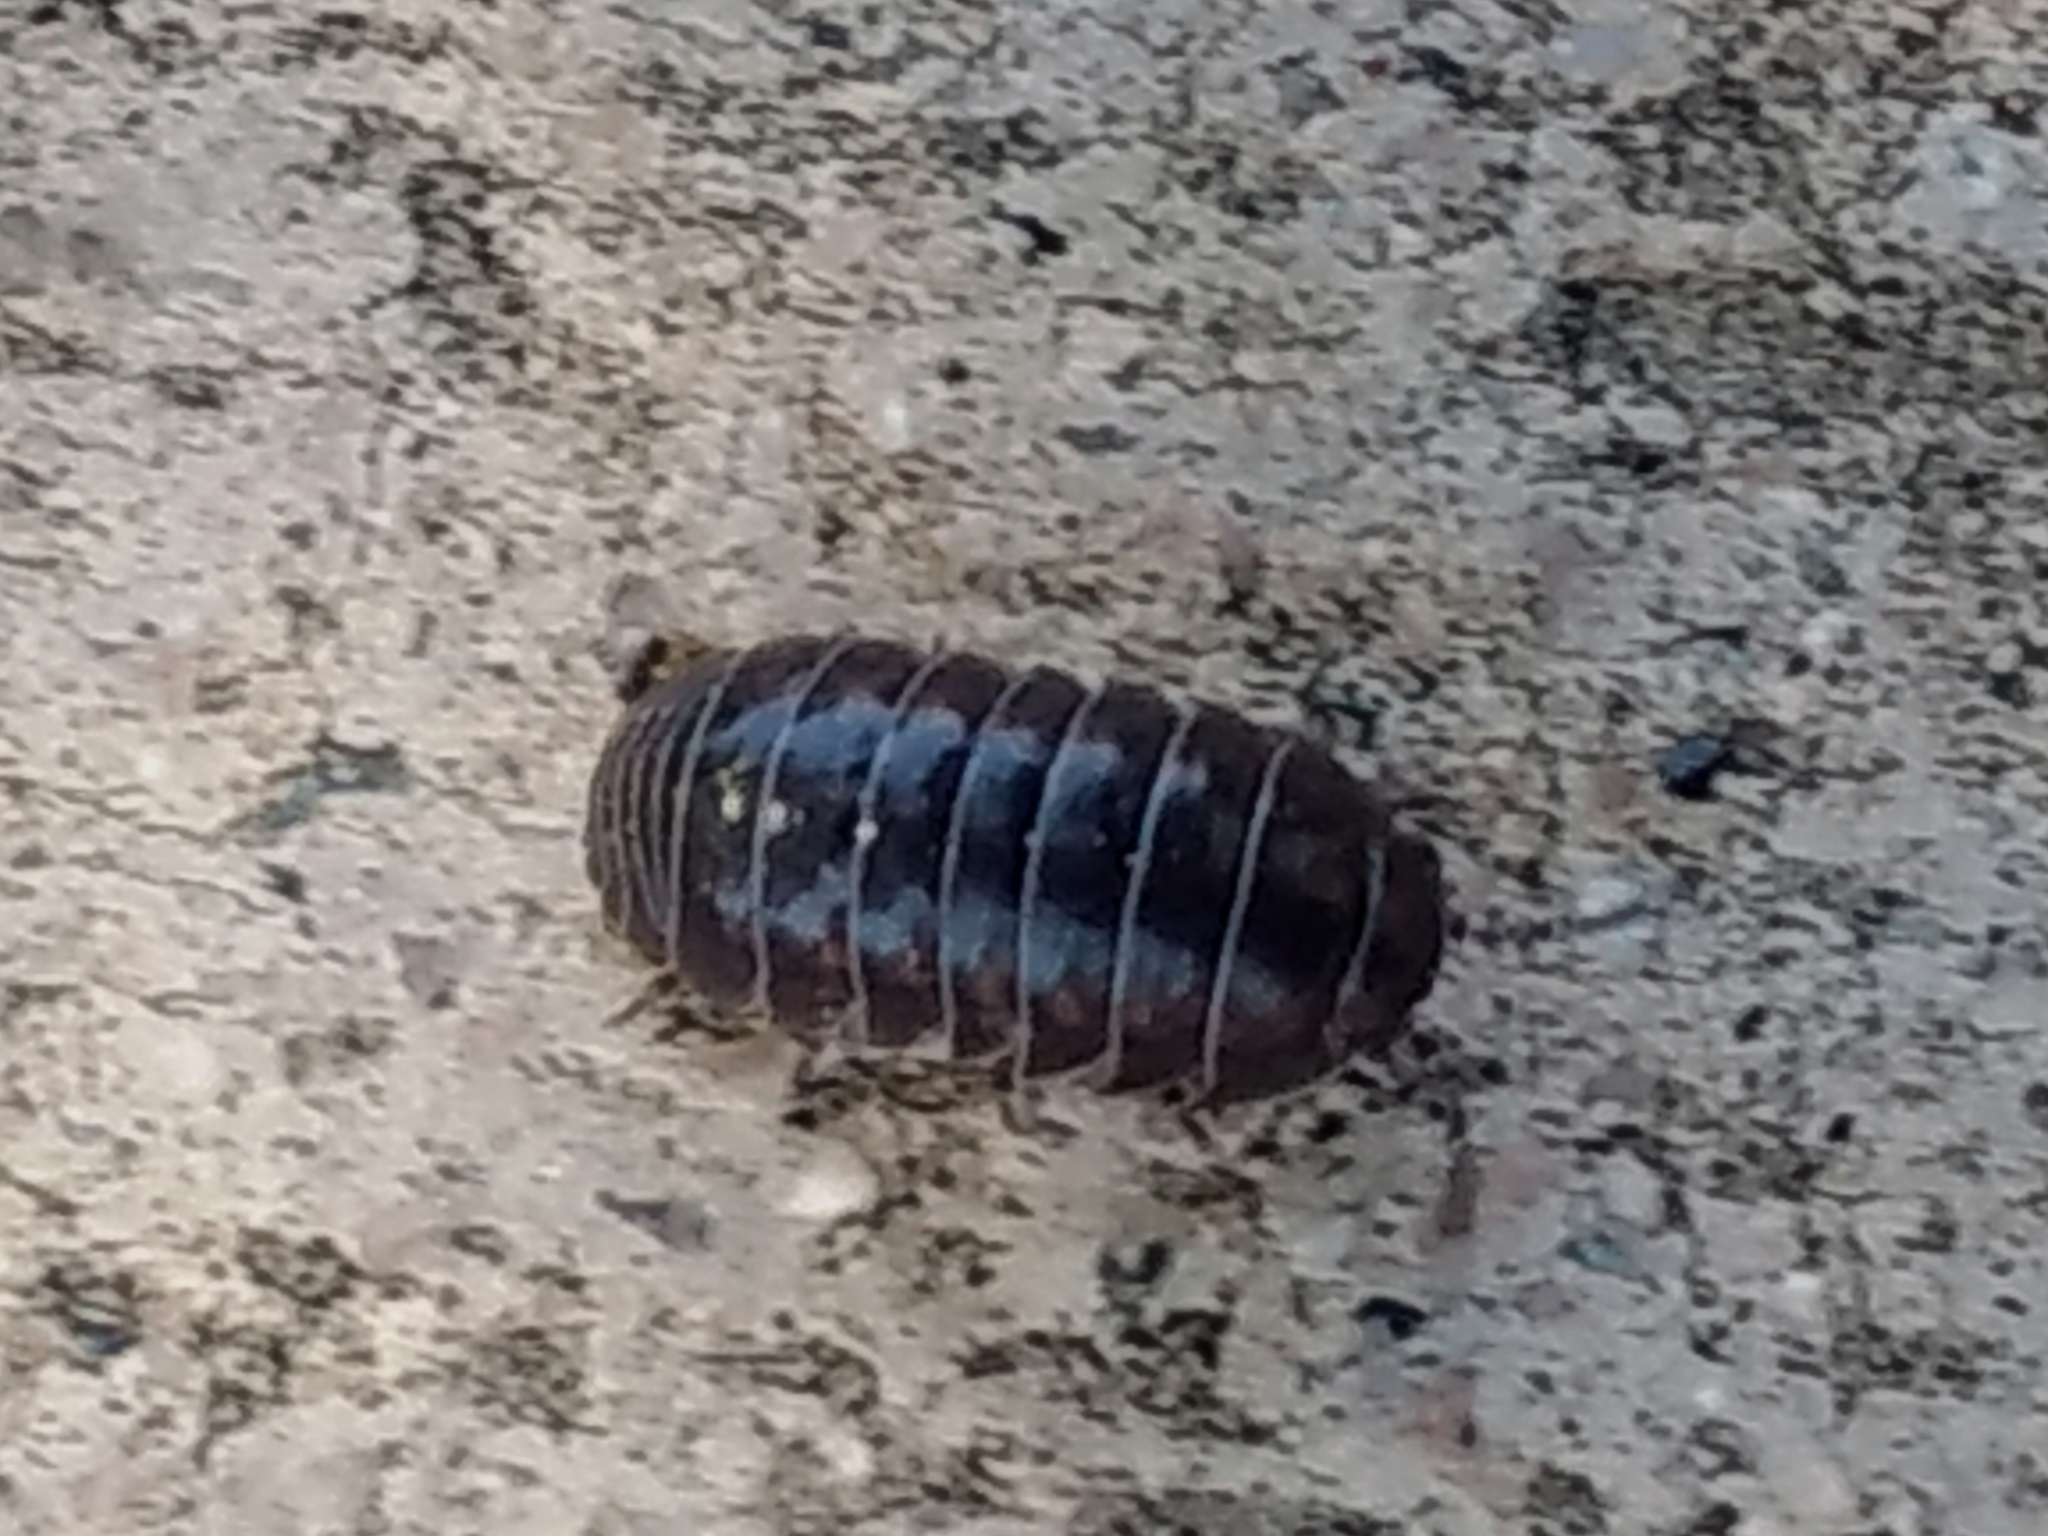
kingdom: Animalia
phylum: Arthropoda
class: Malacostraca
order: Isopoda
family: Armadillidiidae
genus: Armadillidium
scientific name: Armadillidium vulgare
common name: Common pill woodlouse
